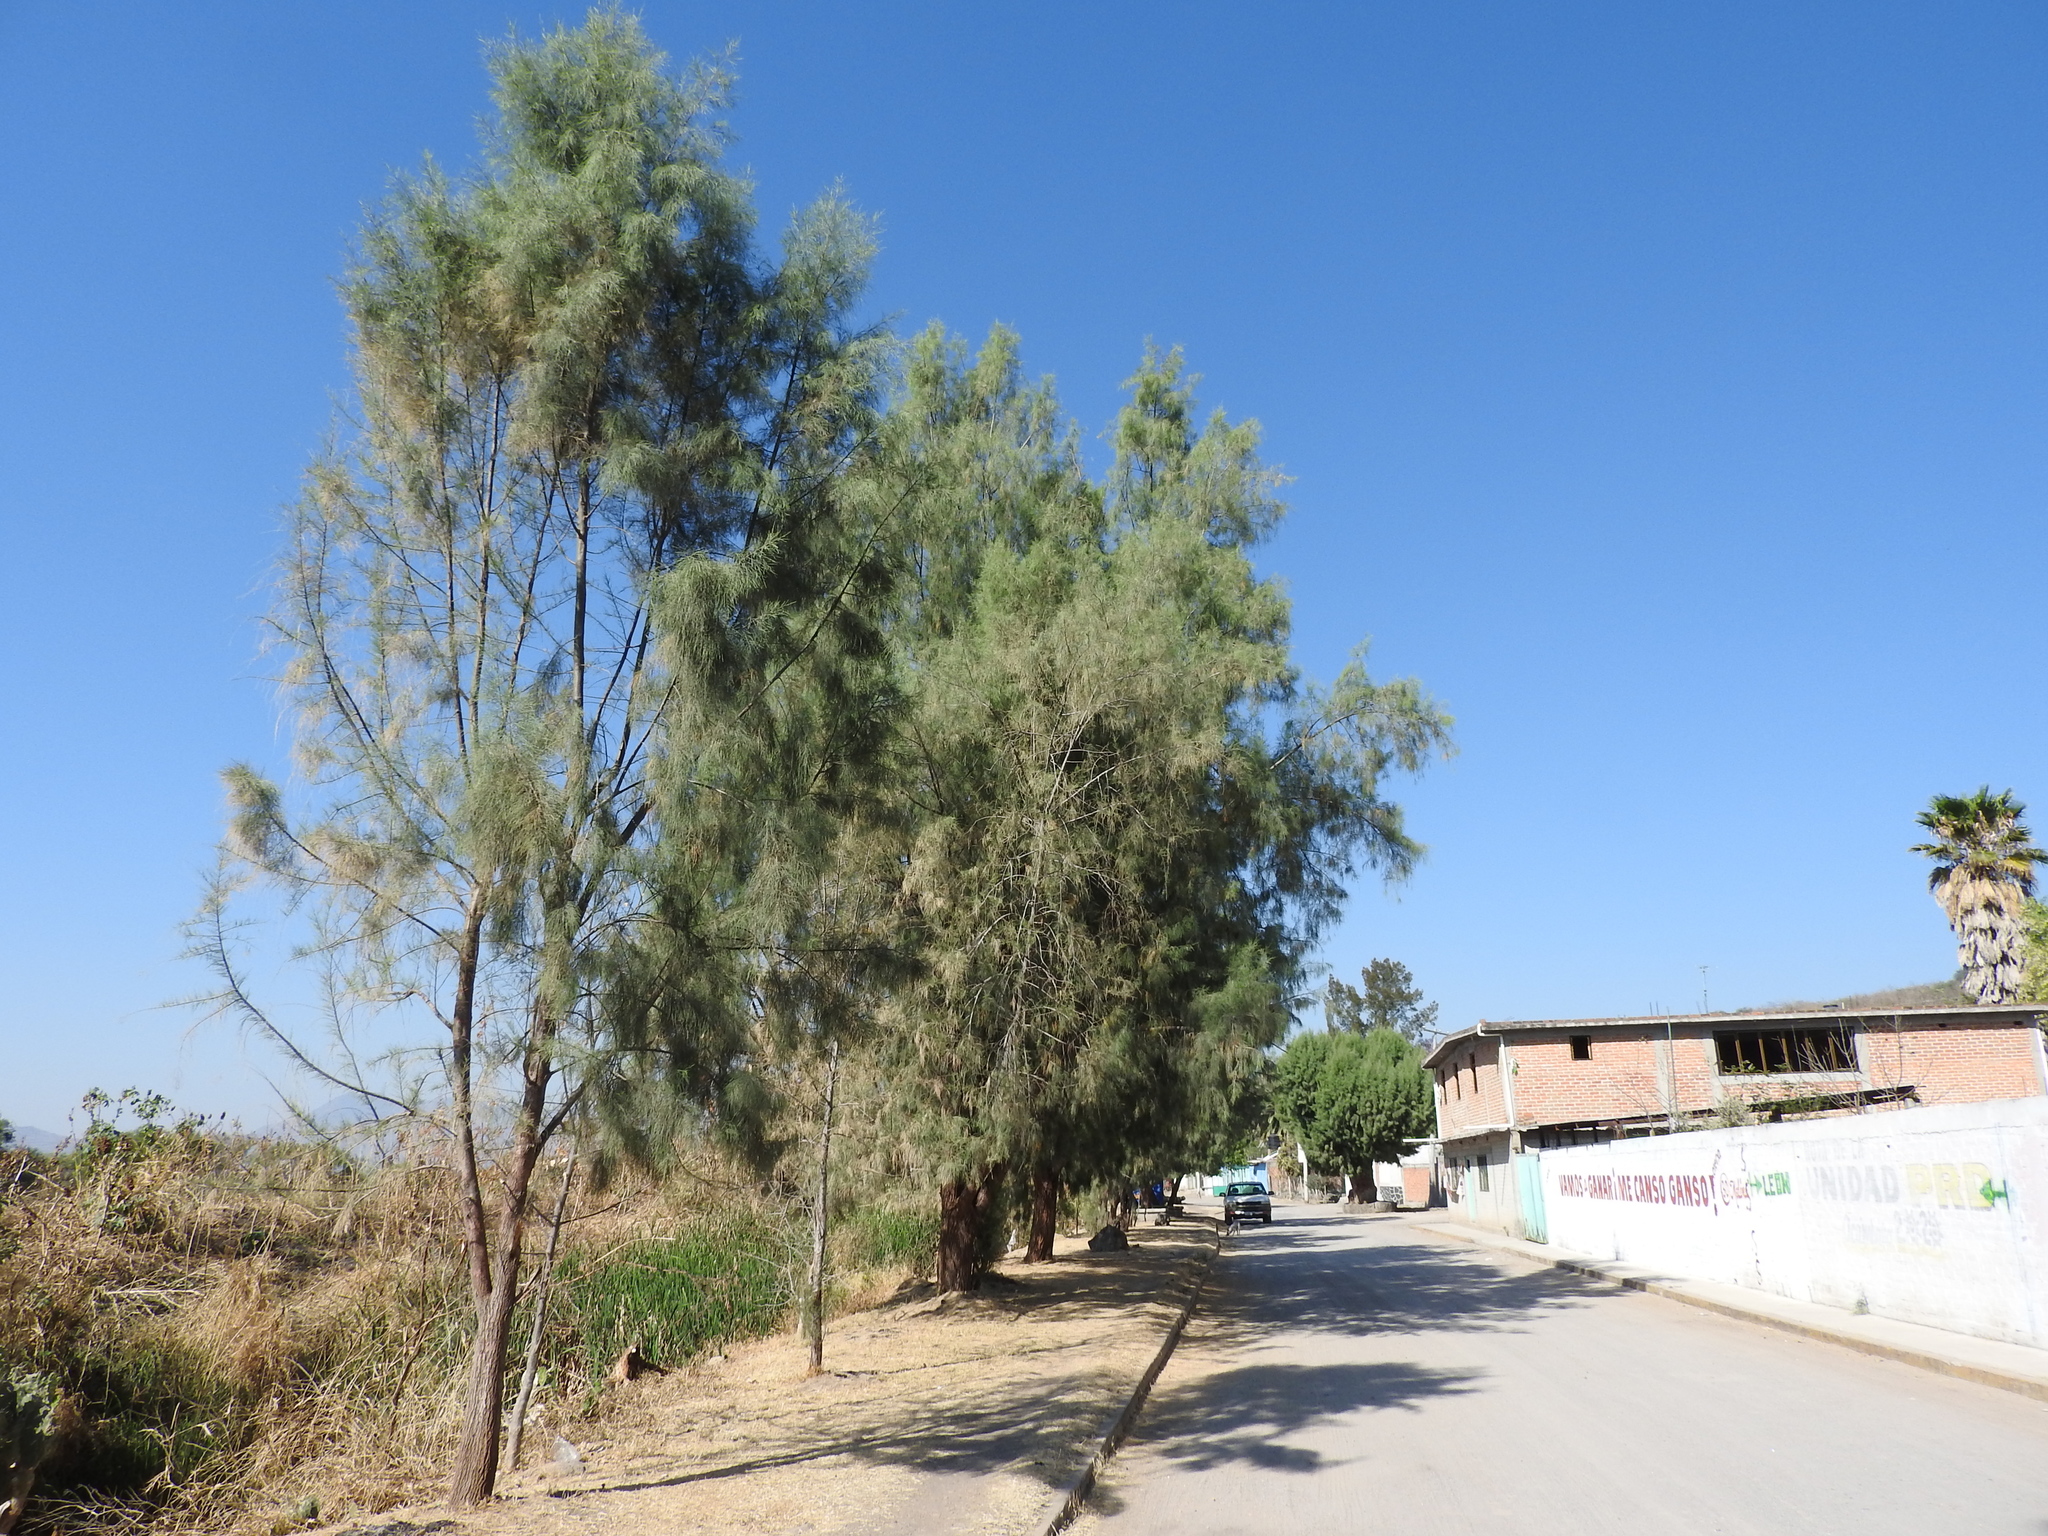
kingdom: Plantae
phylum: Tracheophyta
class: Magnoliopsida
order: Caryophyllales
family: Tamaricaceae
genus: Tamarix
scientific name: Tamarix aphylla
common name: Athel tamarisk
